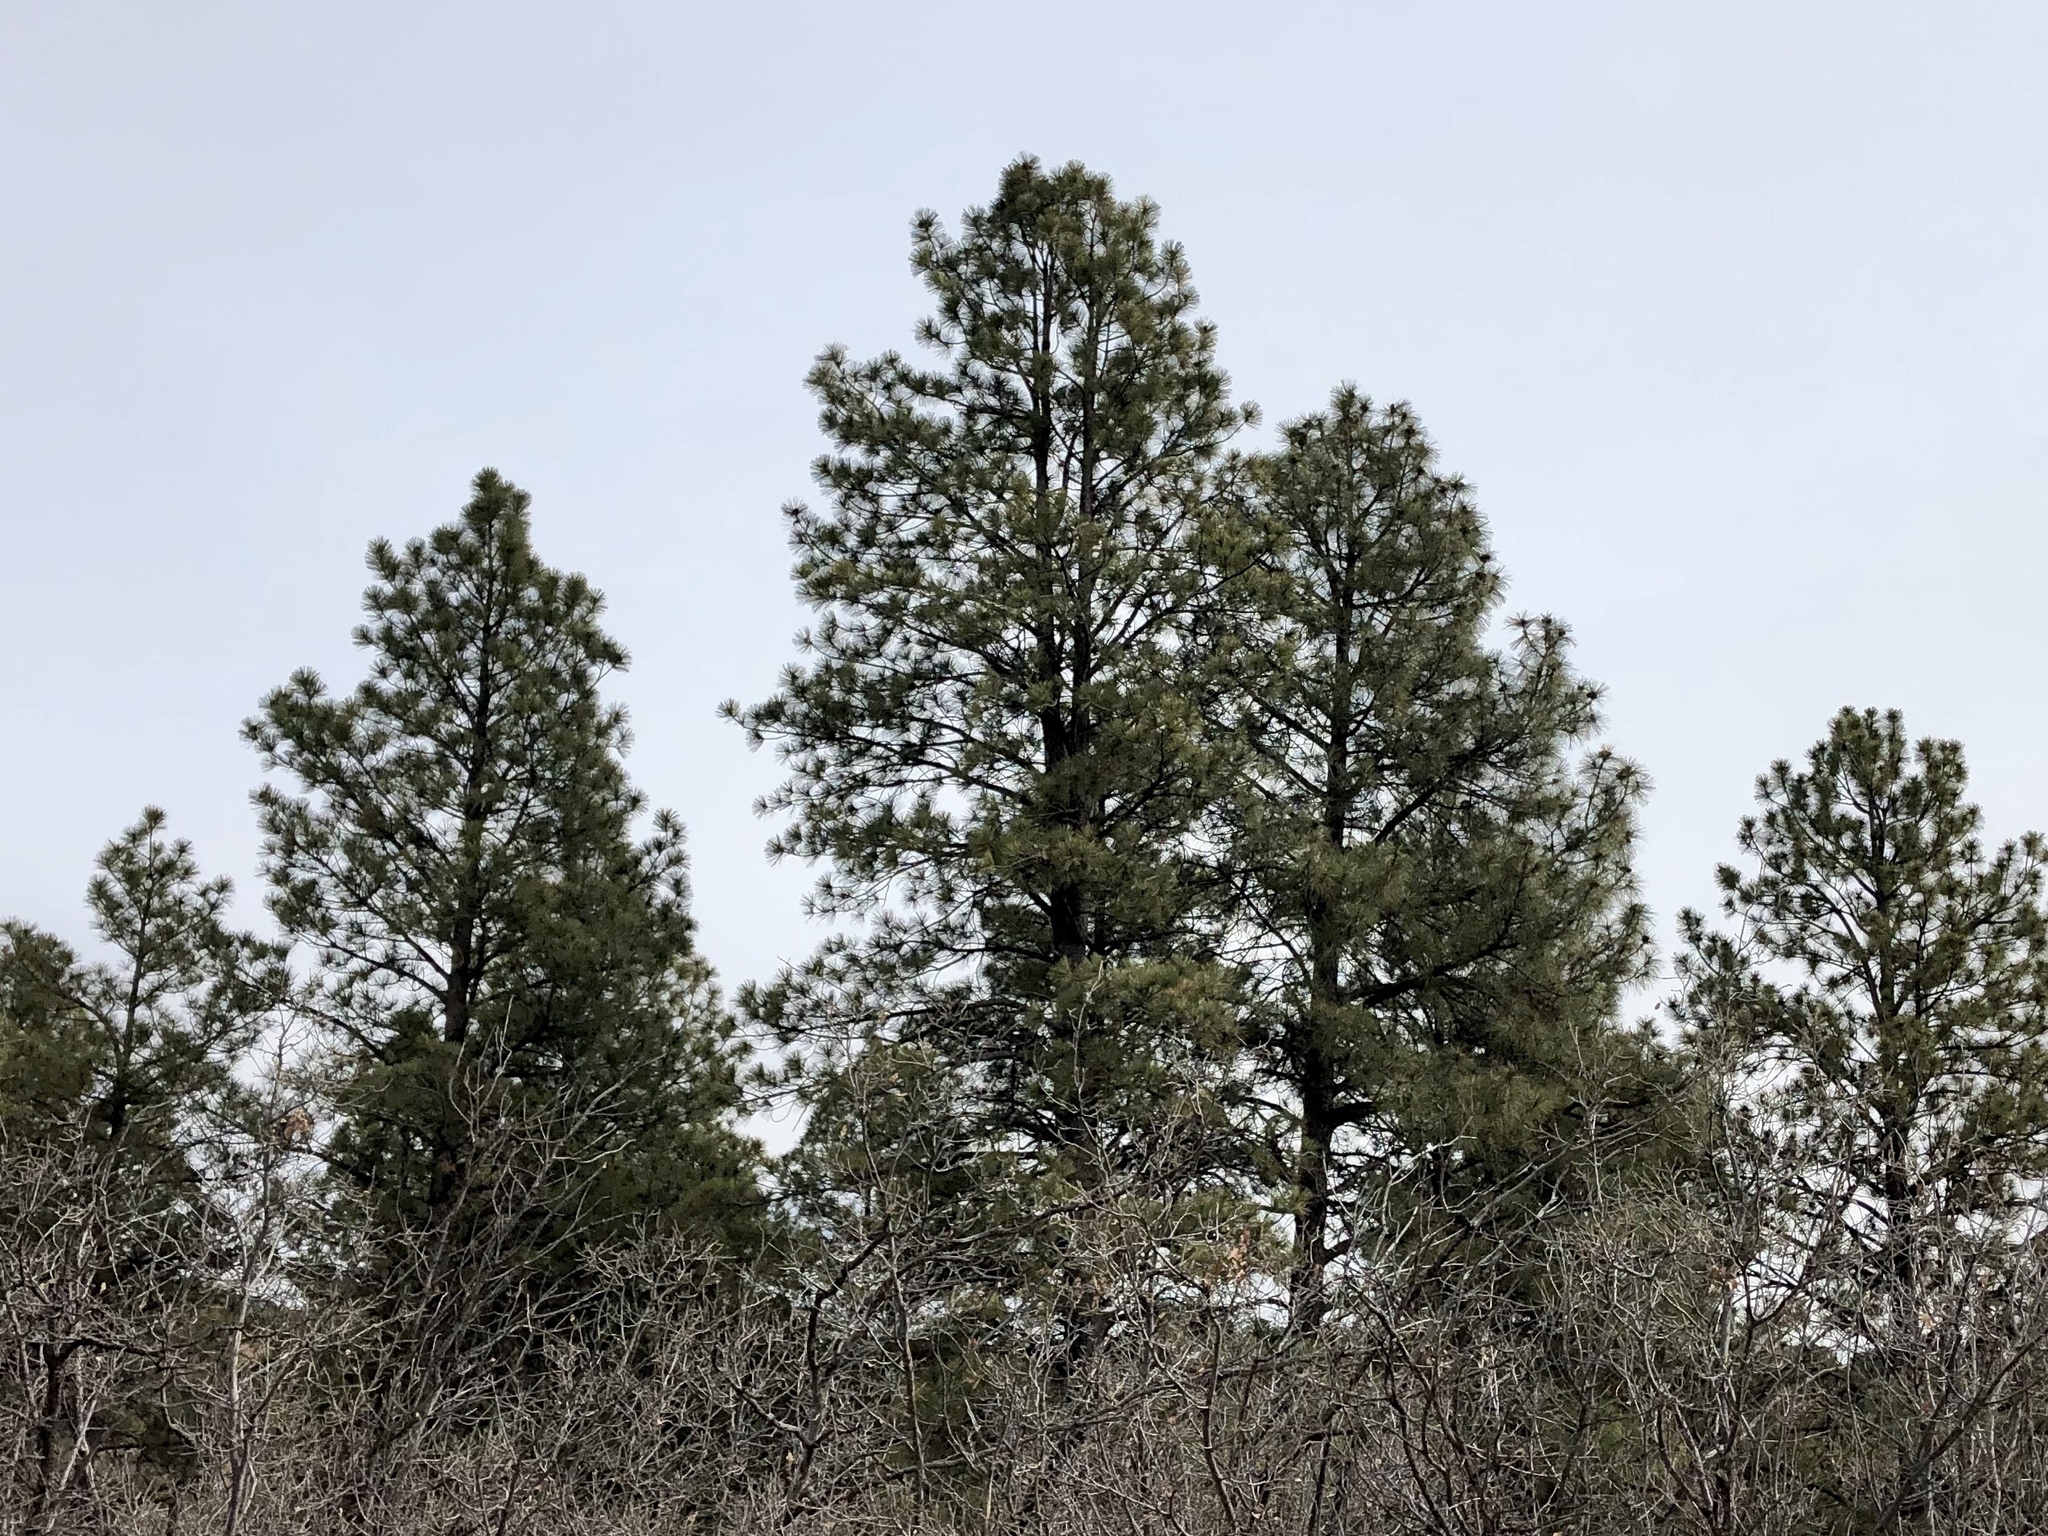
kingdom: Plantae
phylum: Tracheophyta
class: Pinopsida
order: Pinales
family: Pinaceae
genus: Pinus
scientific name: Pinus ponderosa
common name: Western yellow-pine
